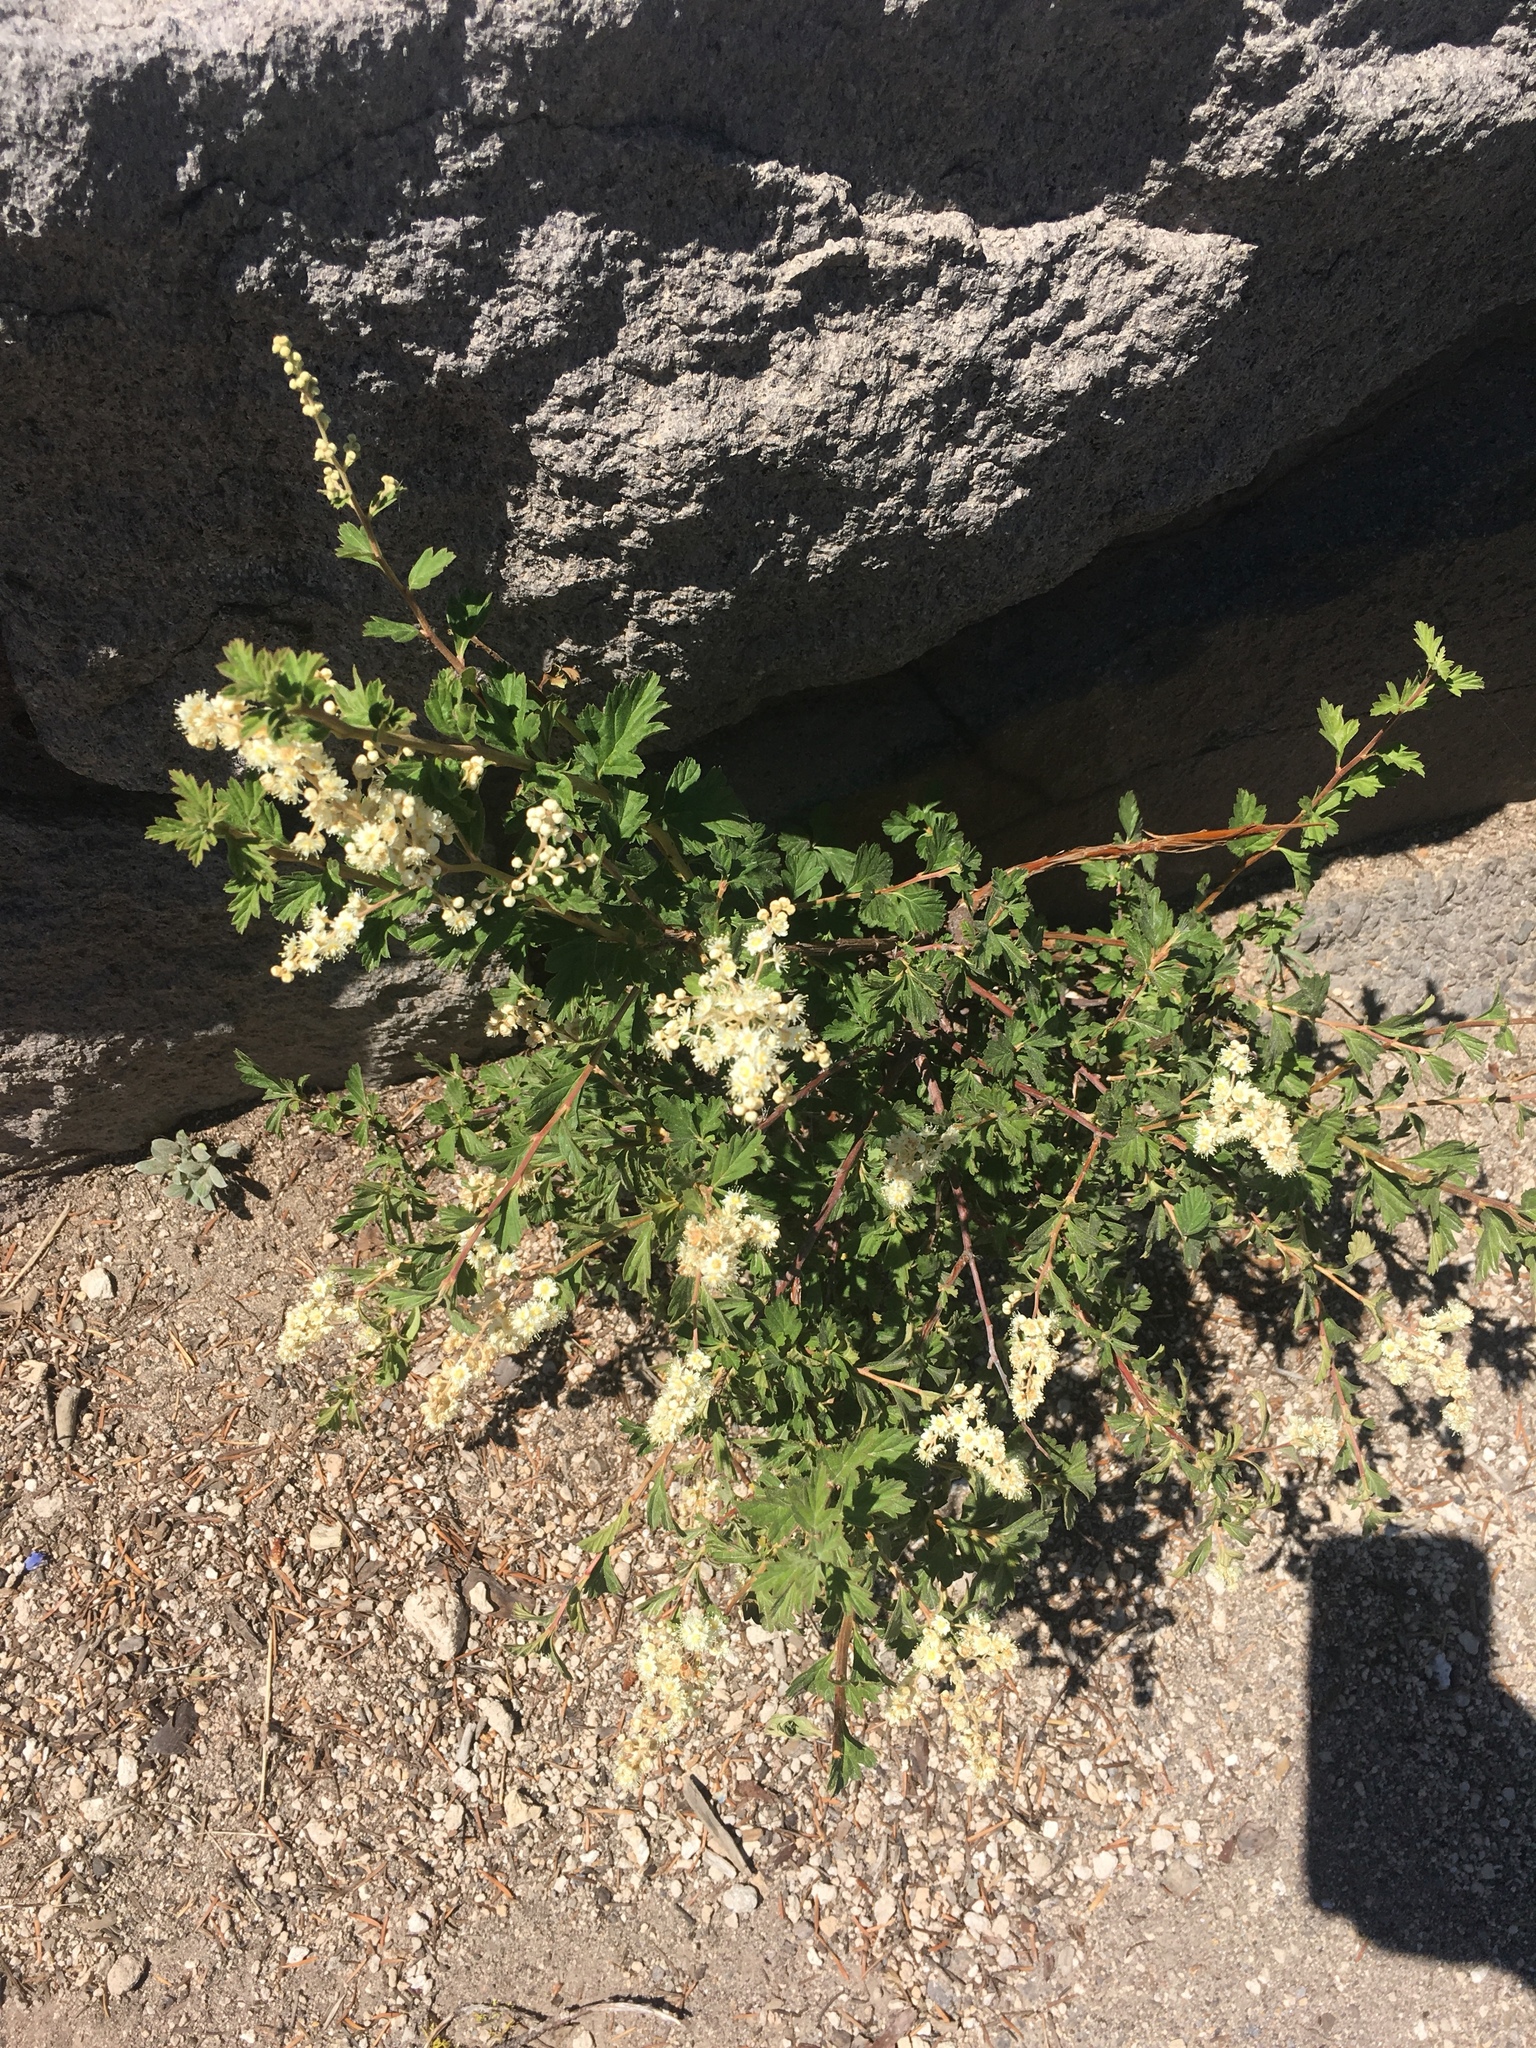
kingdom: Plantae
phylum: Tracheophyta
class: Magnoliopsida
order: Rosales
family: Rosaceae
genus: Holodiscus
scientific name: Holodiscus discolor
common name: Oceanspray
